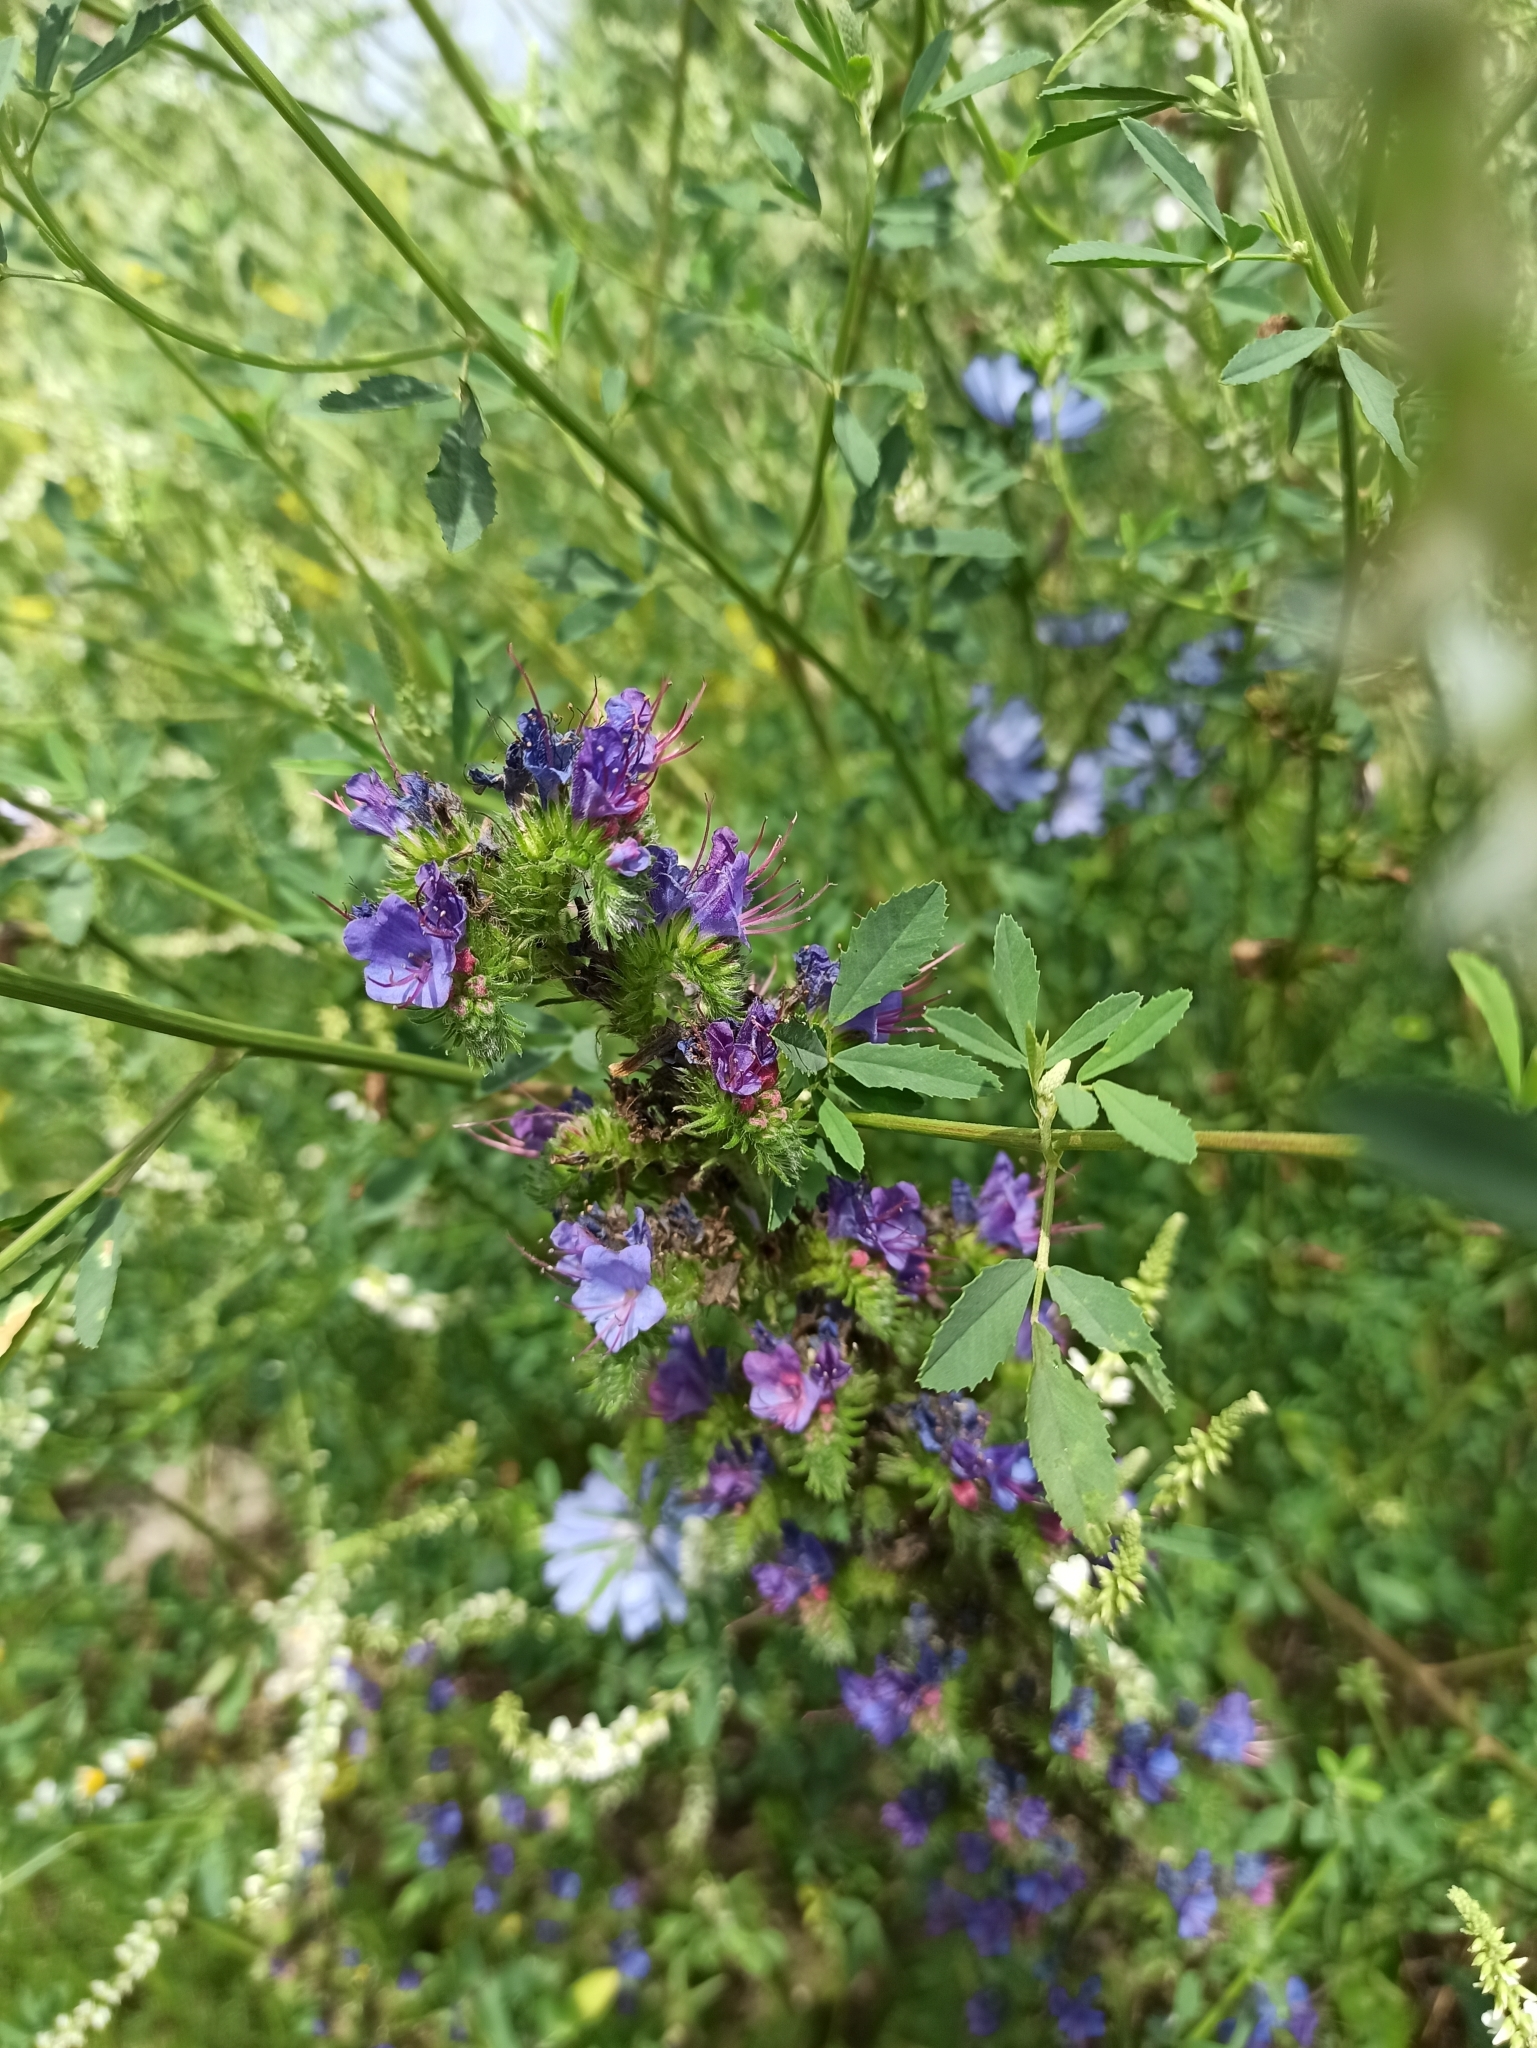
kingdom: Plantae
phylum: Tracheophyta
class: Magnoliopsida
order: Boraginales
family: Boraginaceae
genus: Echium
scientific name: Echium vulgare
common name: Common viper's bugloss
